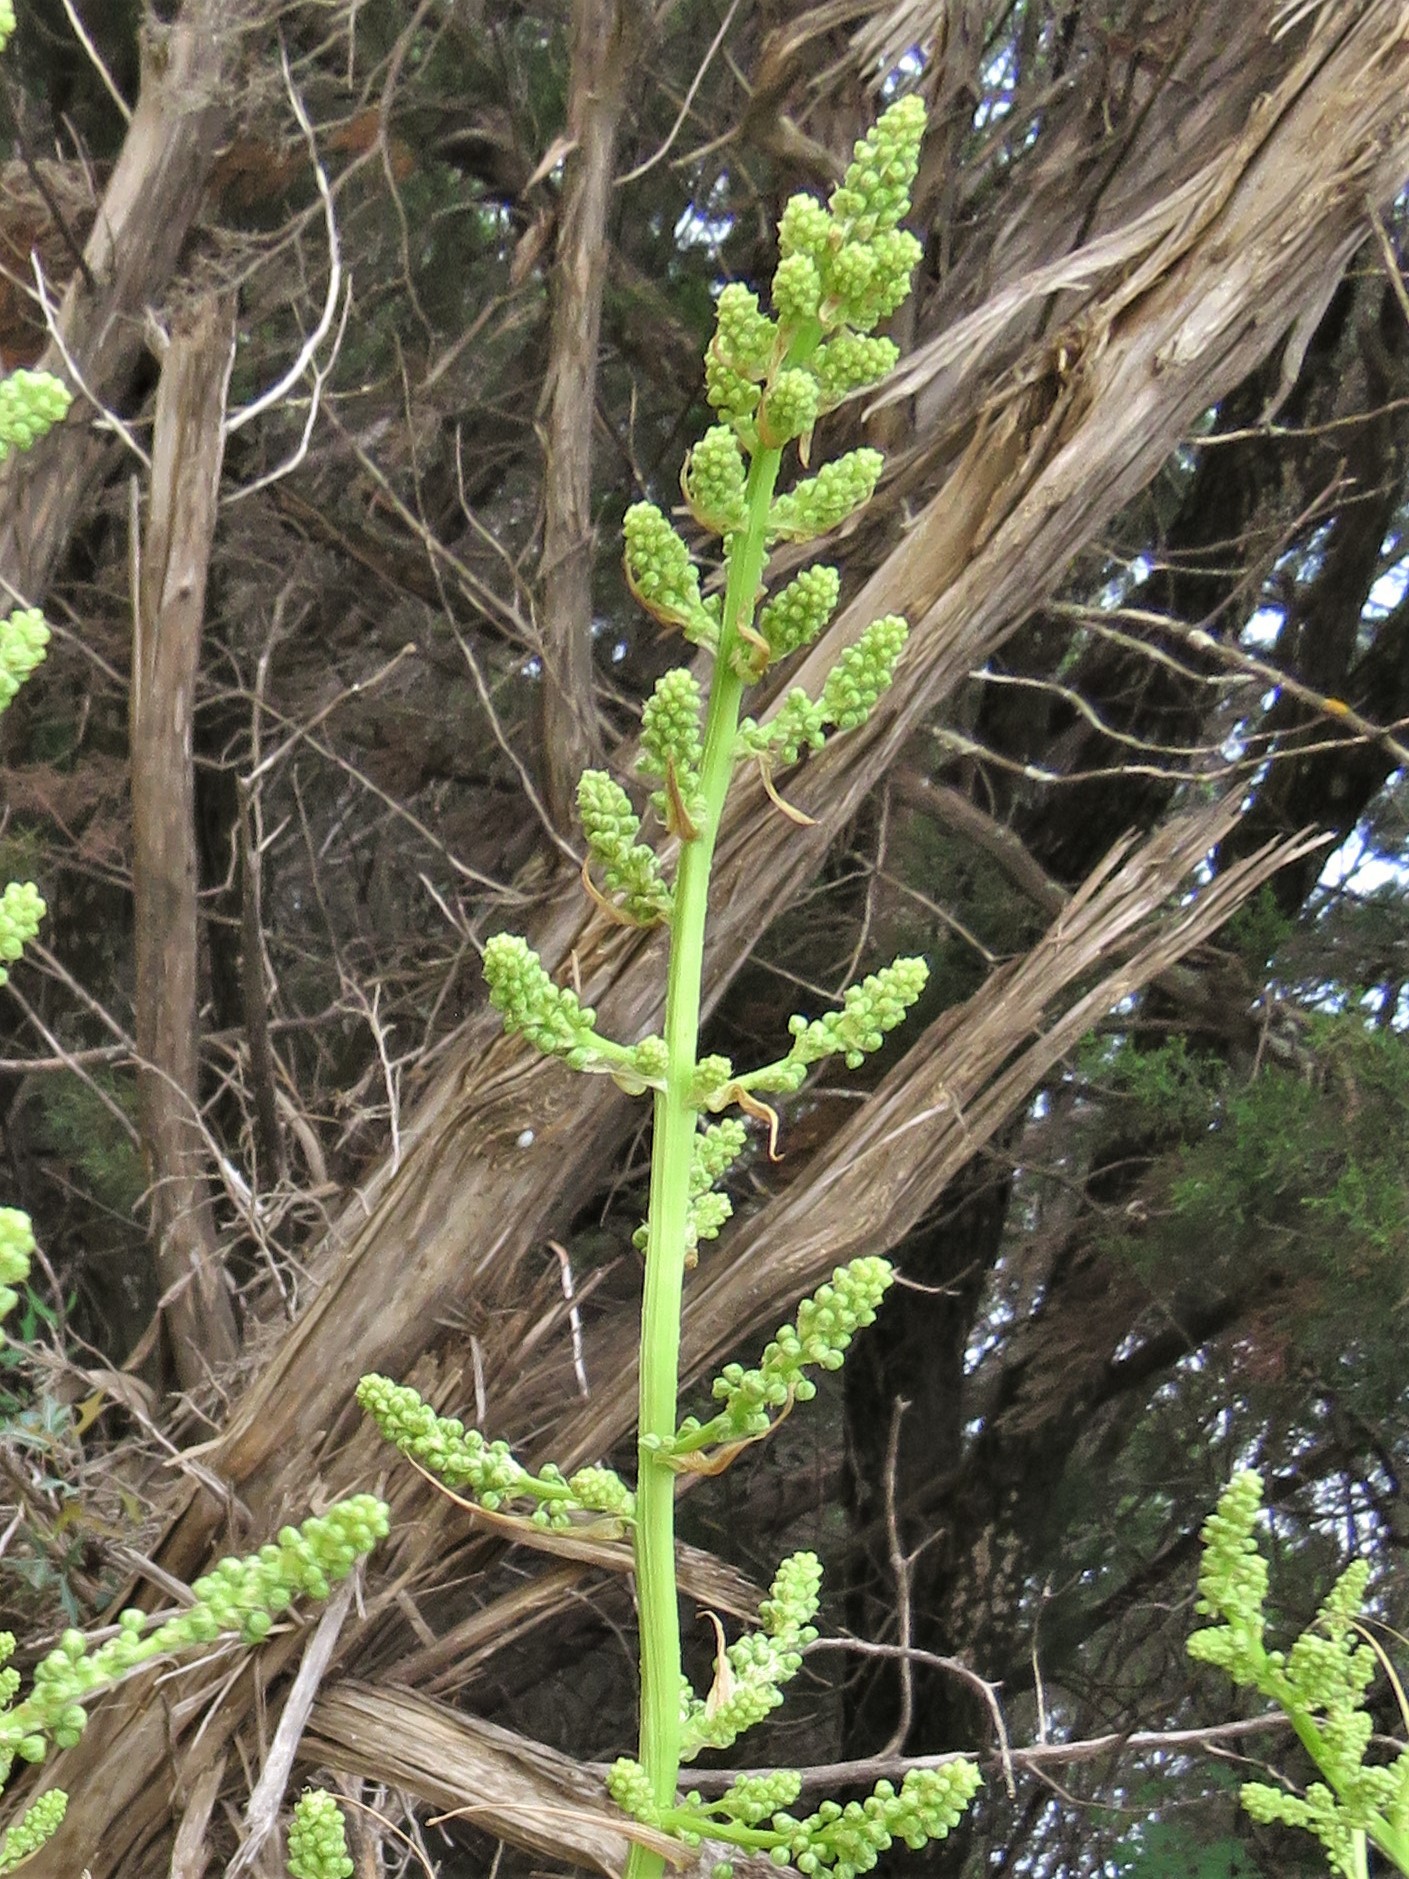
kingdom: Plantae
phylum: Tracheophyta
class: Liliopsida
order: Asparagales
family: Asparagaceae
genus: Nolina
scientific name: Nolina lindheimeriana
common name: Lindheimer's bear-grass
